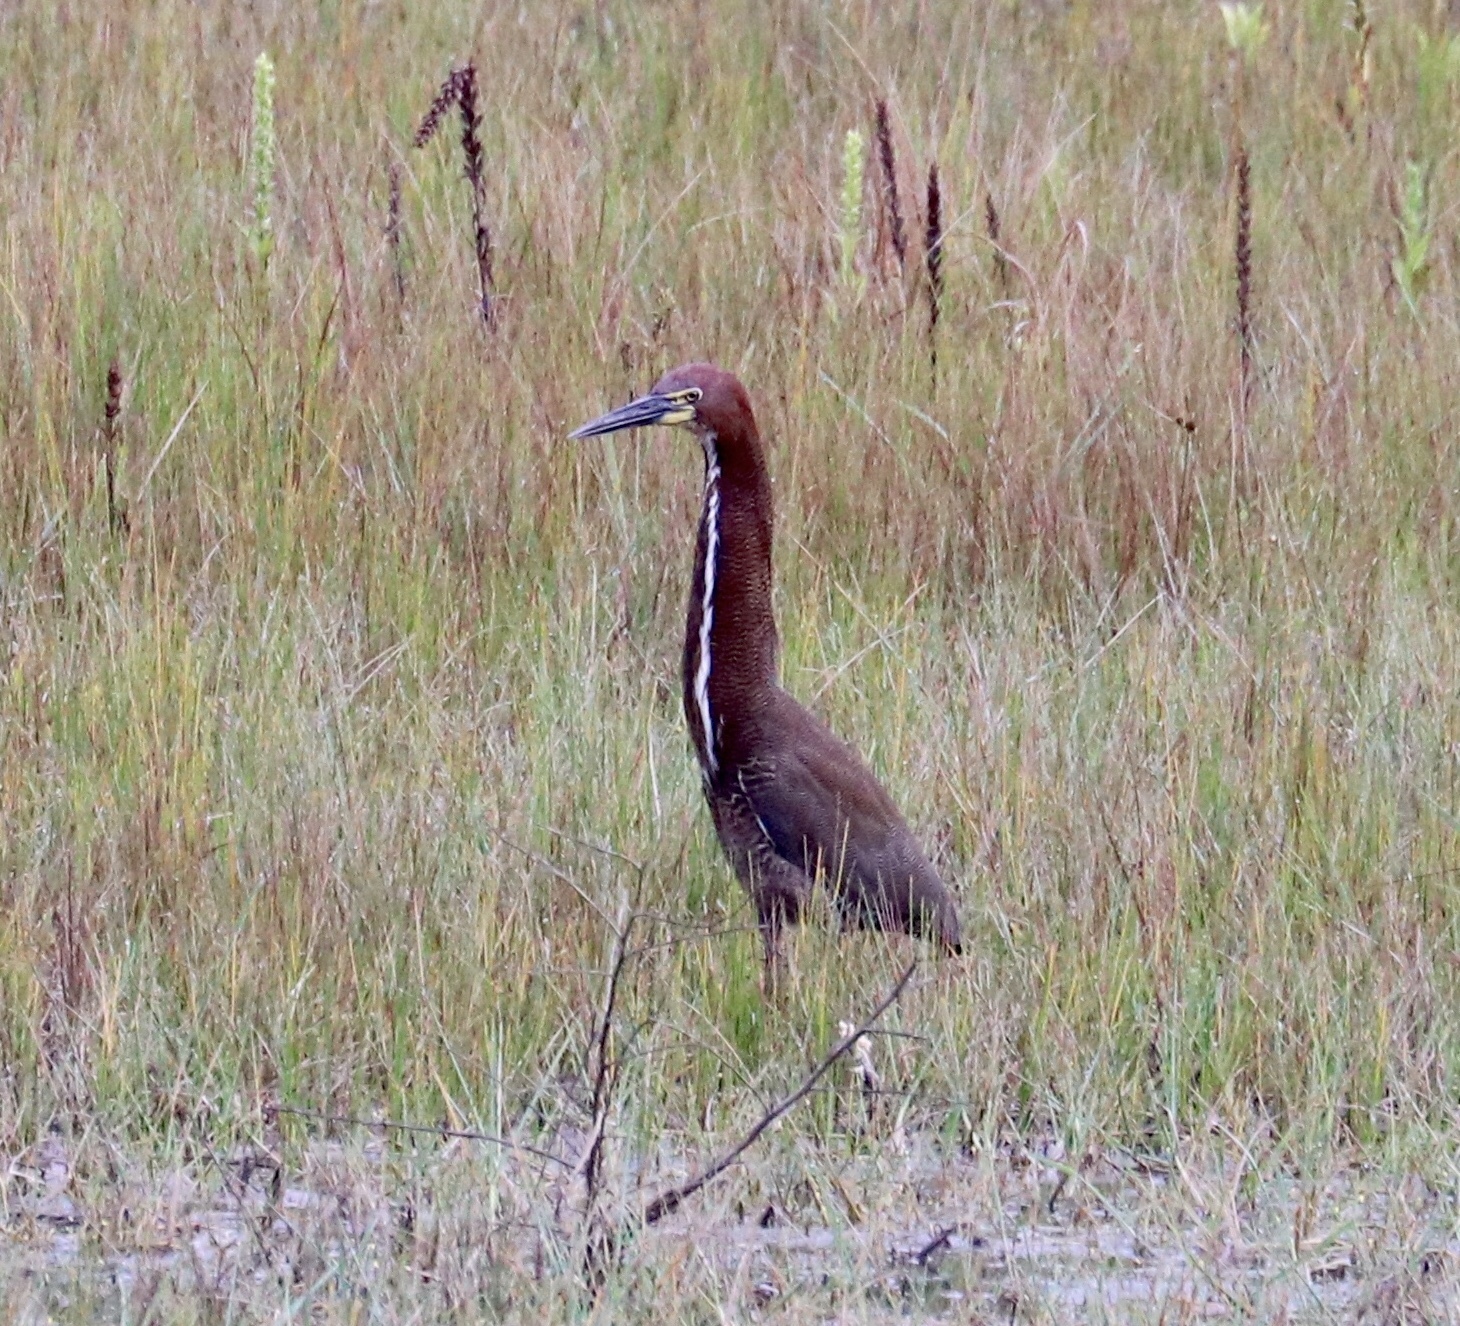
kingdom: Animalia
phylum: Chordata
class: Aves
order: Pelecaniformes
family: Ardeidae
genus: Tigrisoma
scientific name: Tigrisoma lineatum
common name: Rufescent tiger-heron
